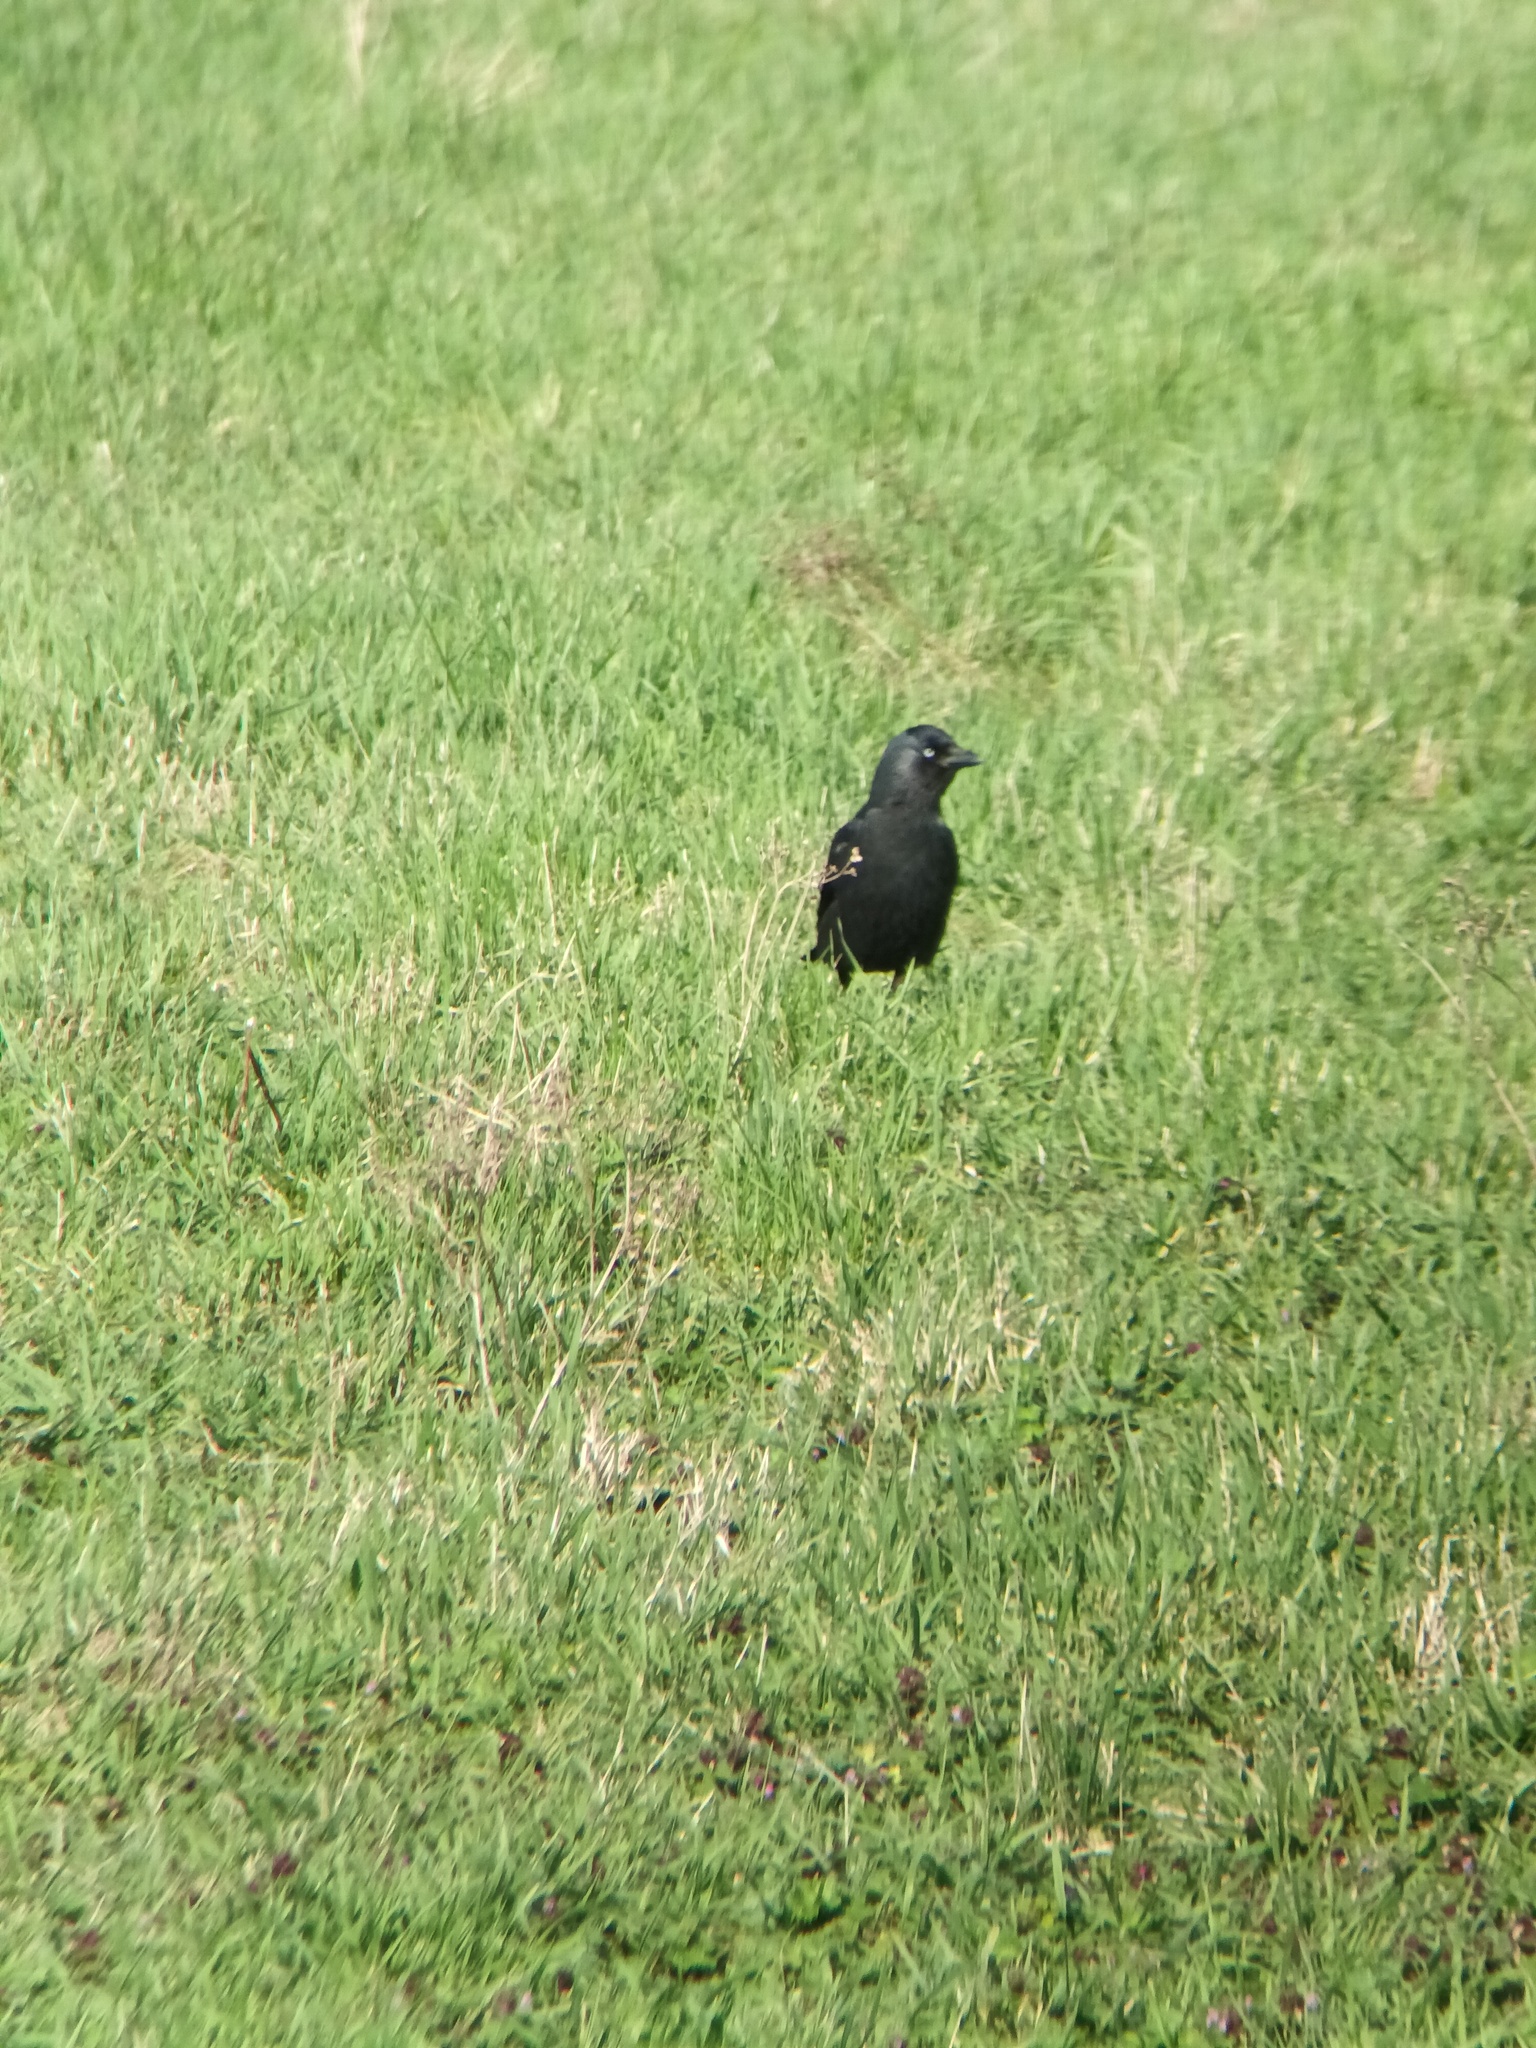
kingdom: Animalia
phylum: Chordata
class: Aves
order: Passeriformes
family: Corvidae
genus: Coloeus
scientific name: Coloeus monedula
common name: Western jackdaw
